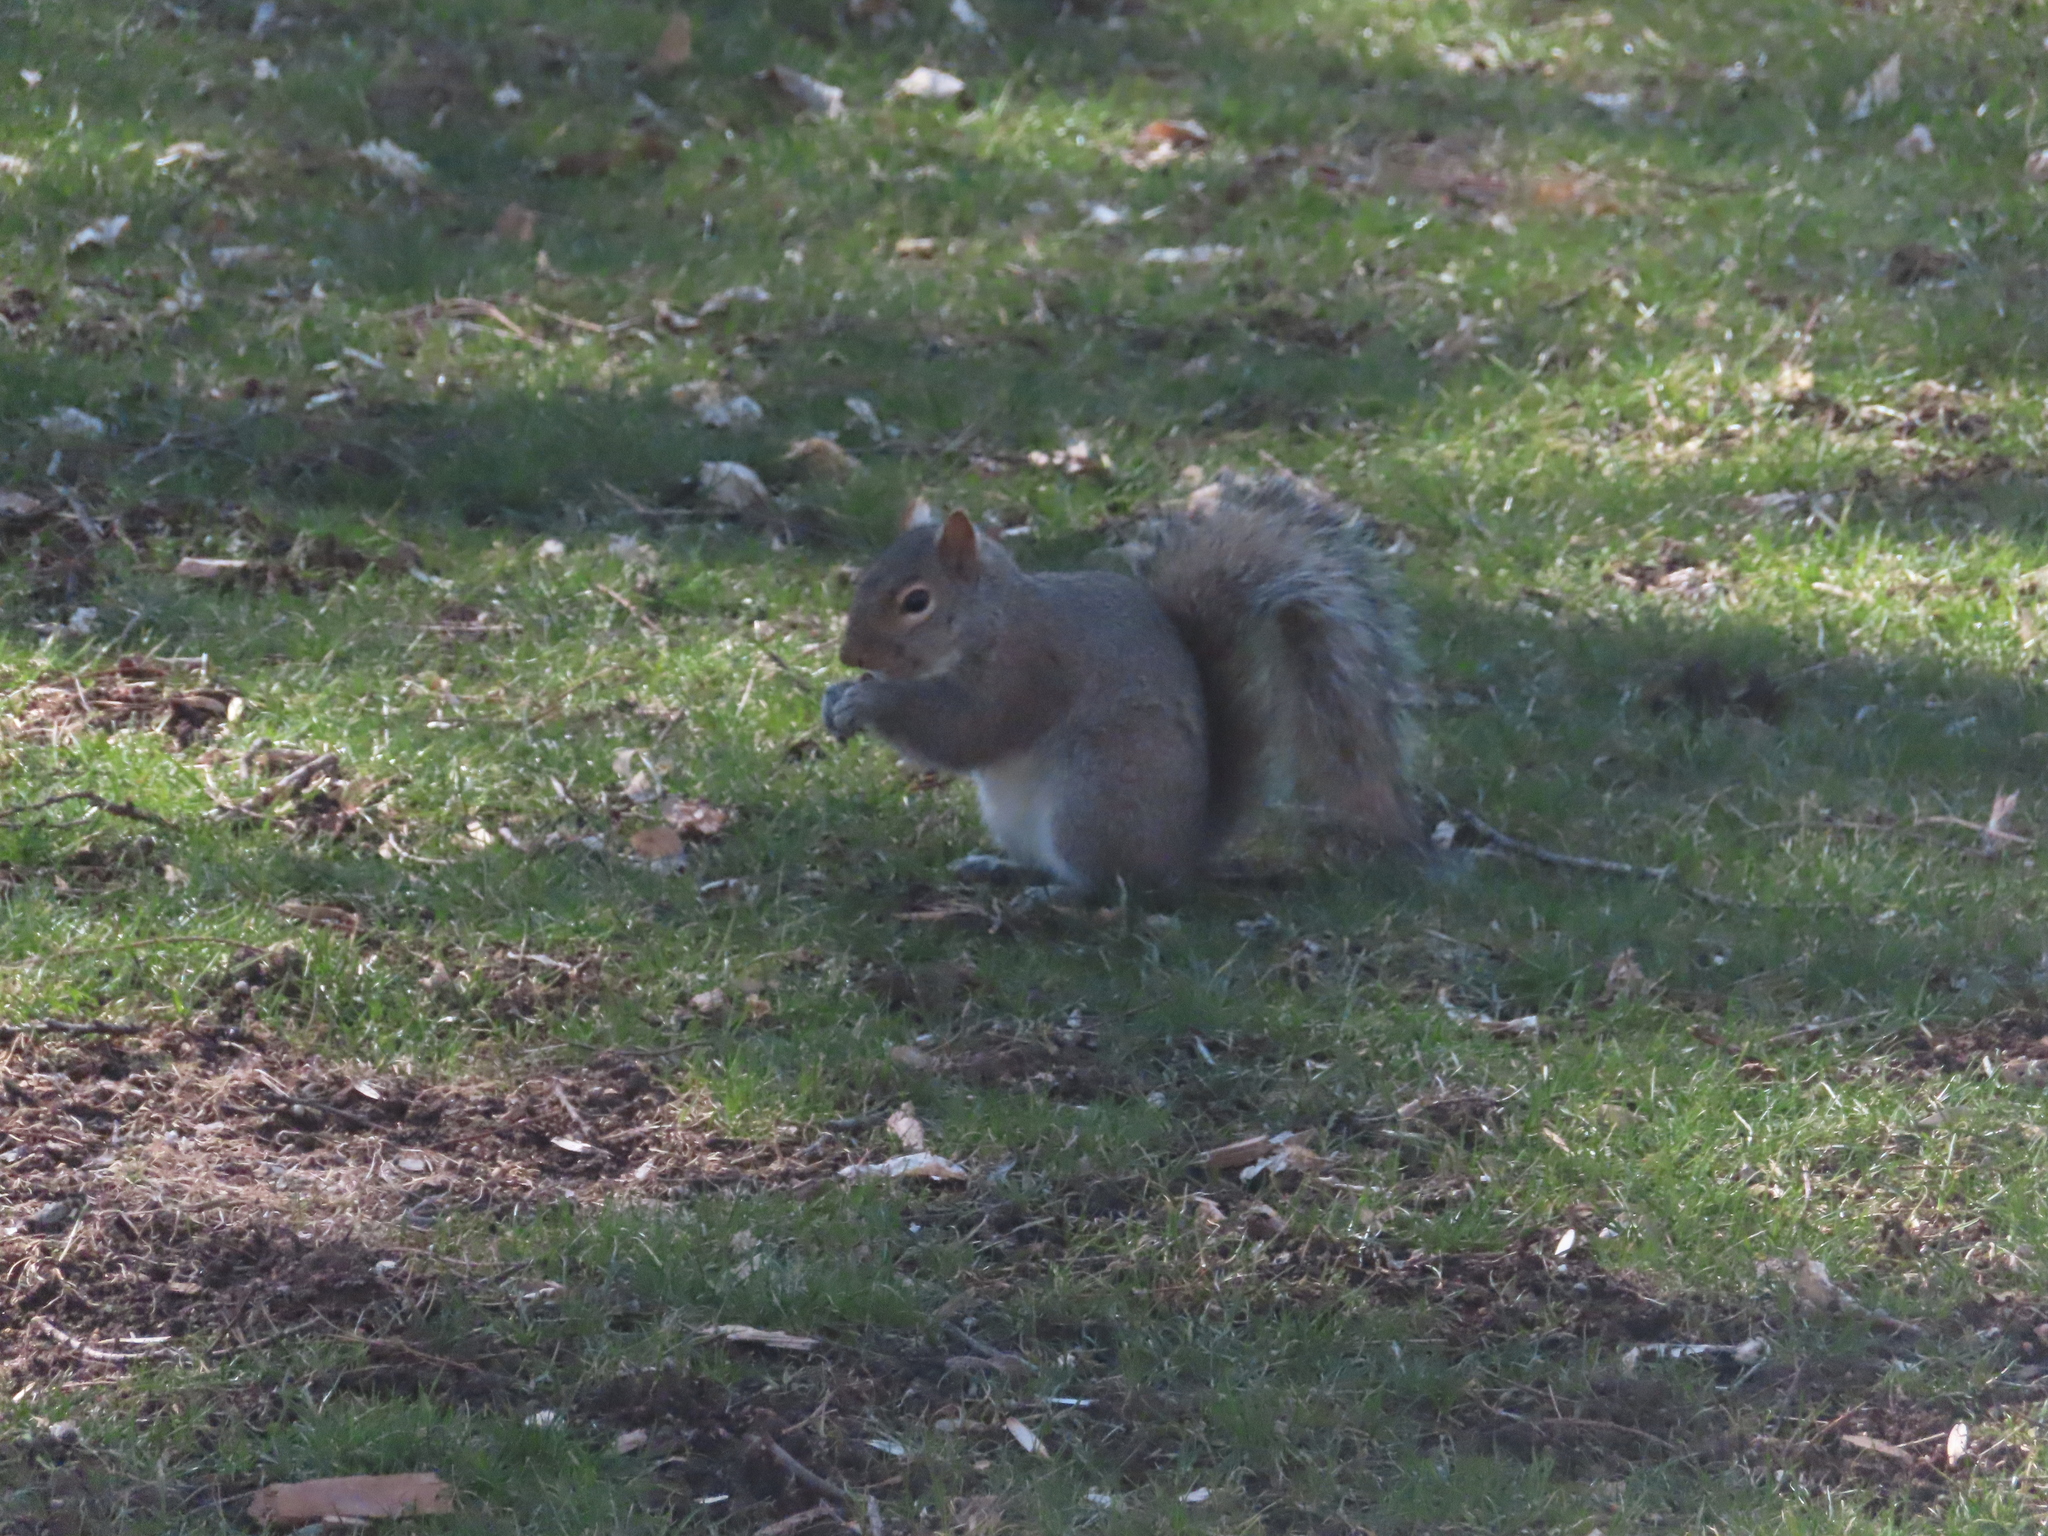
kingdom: Animalia
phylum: Chordata
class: Mammalia
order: Rodentia
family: Sciuridae
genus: Sciurus
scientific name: Sciurus carolinensis
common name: Eastern gray squirrel
